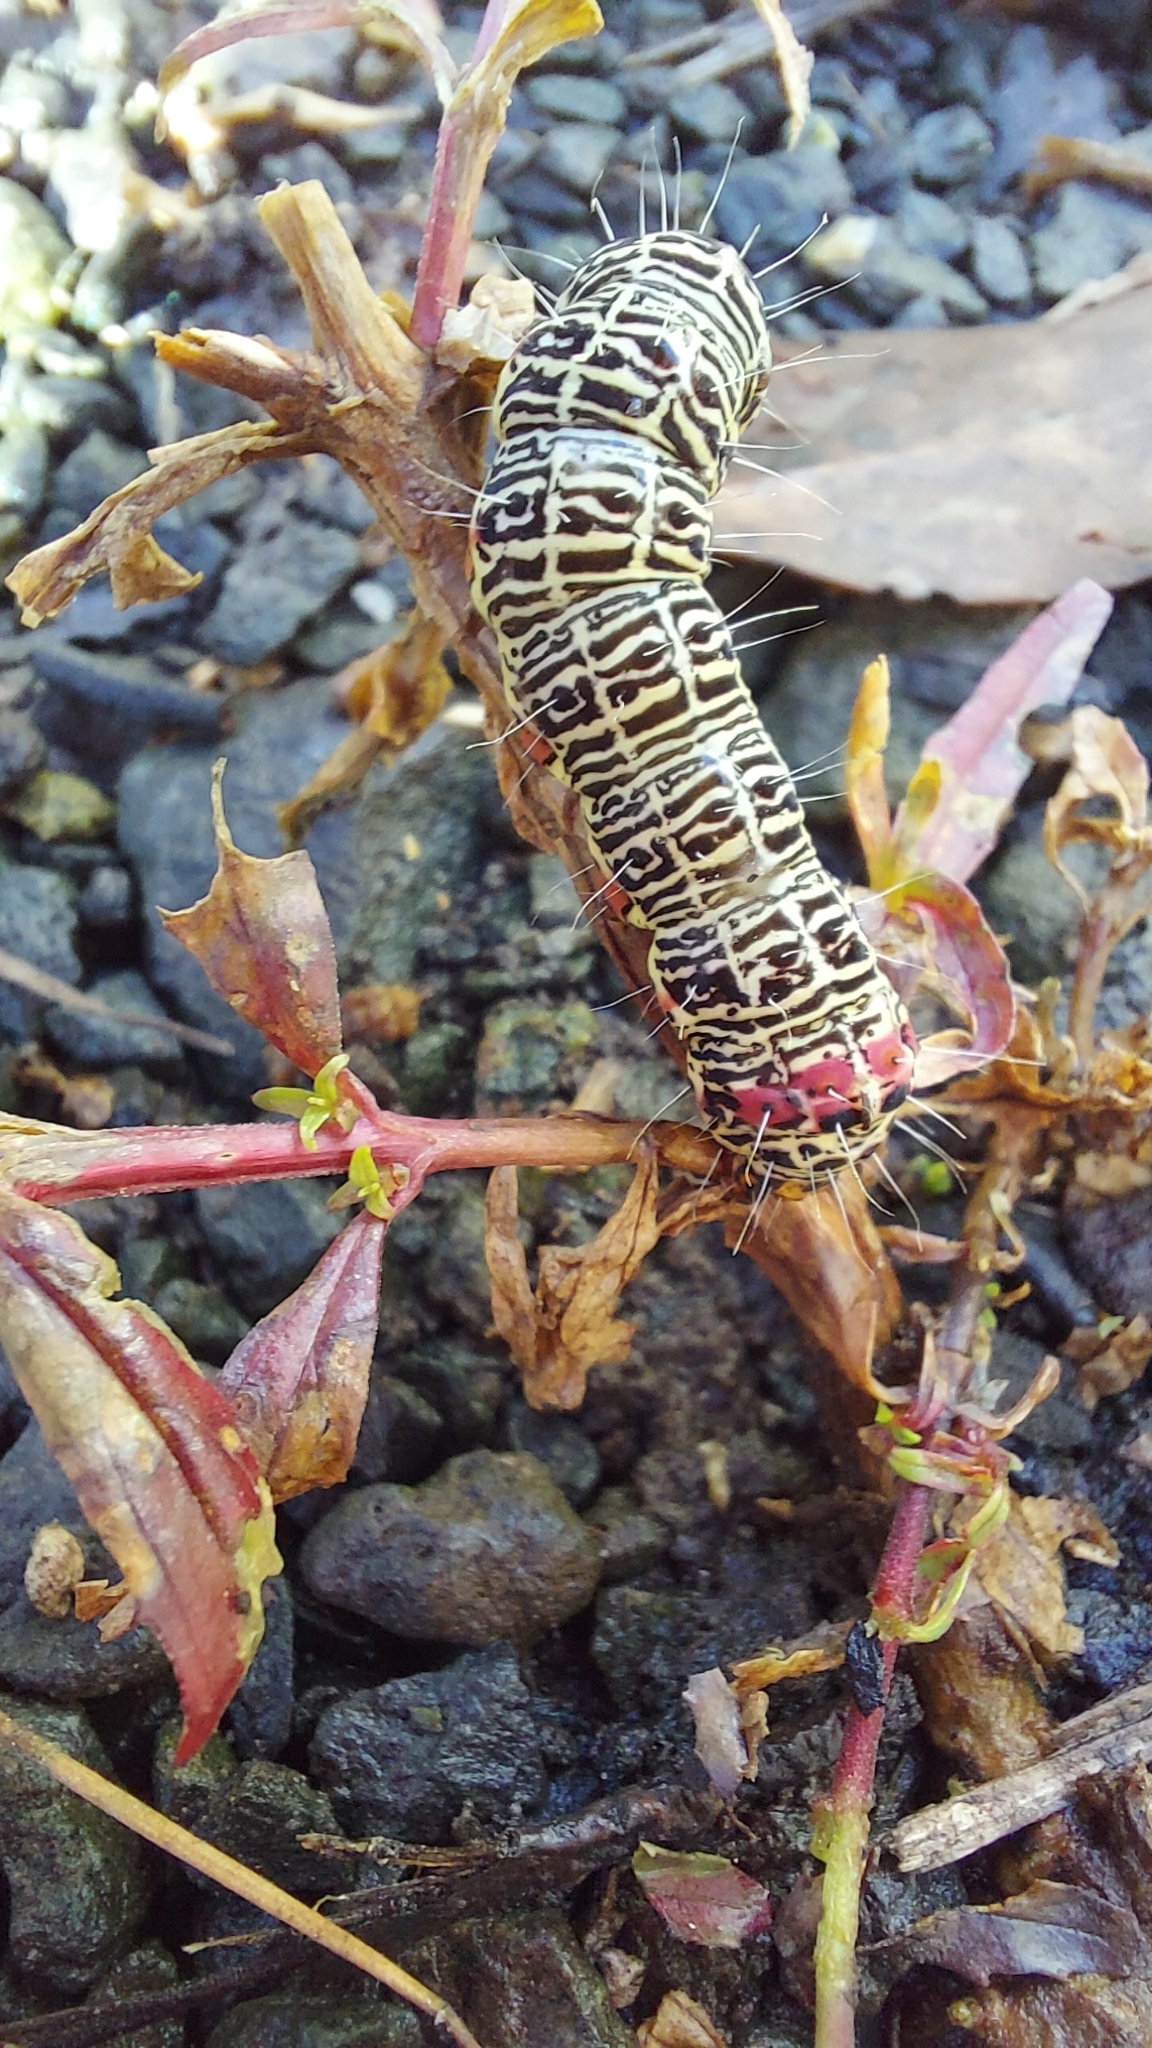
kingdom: Animalia
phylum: Arthropoda
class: Insecta
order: Lepidoptera
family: Noctuidae
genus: Phalaenoides
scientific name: Phalaenoides glycinae
